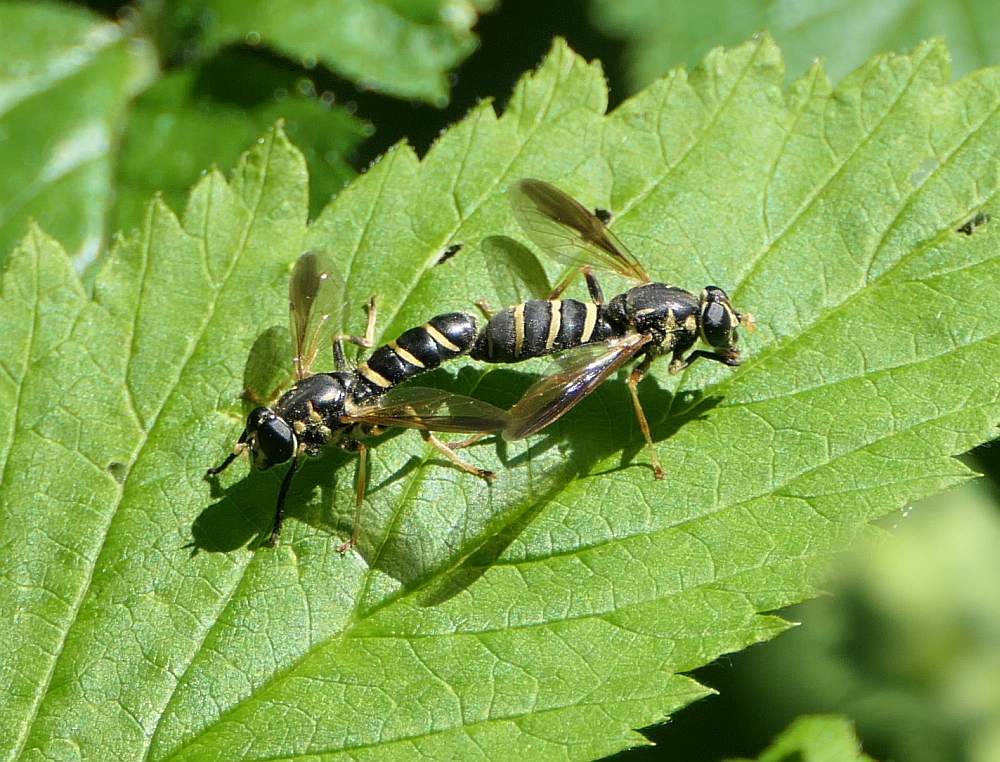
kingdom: Animalia
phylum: Arthropoda
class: Insecta
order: Diptera
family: Syrphidae
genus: Temnostoma
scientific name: Temnostoma balyras
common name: Yellow-haired falsehorn
